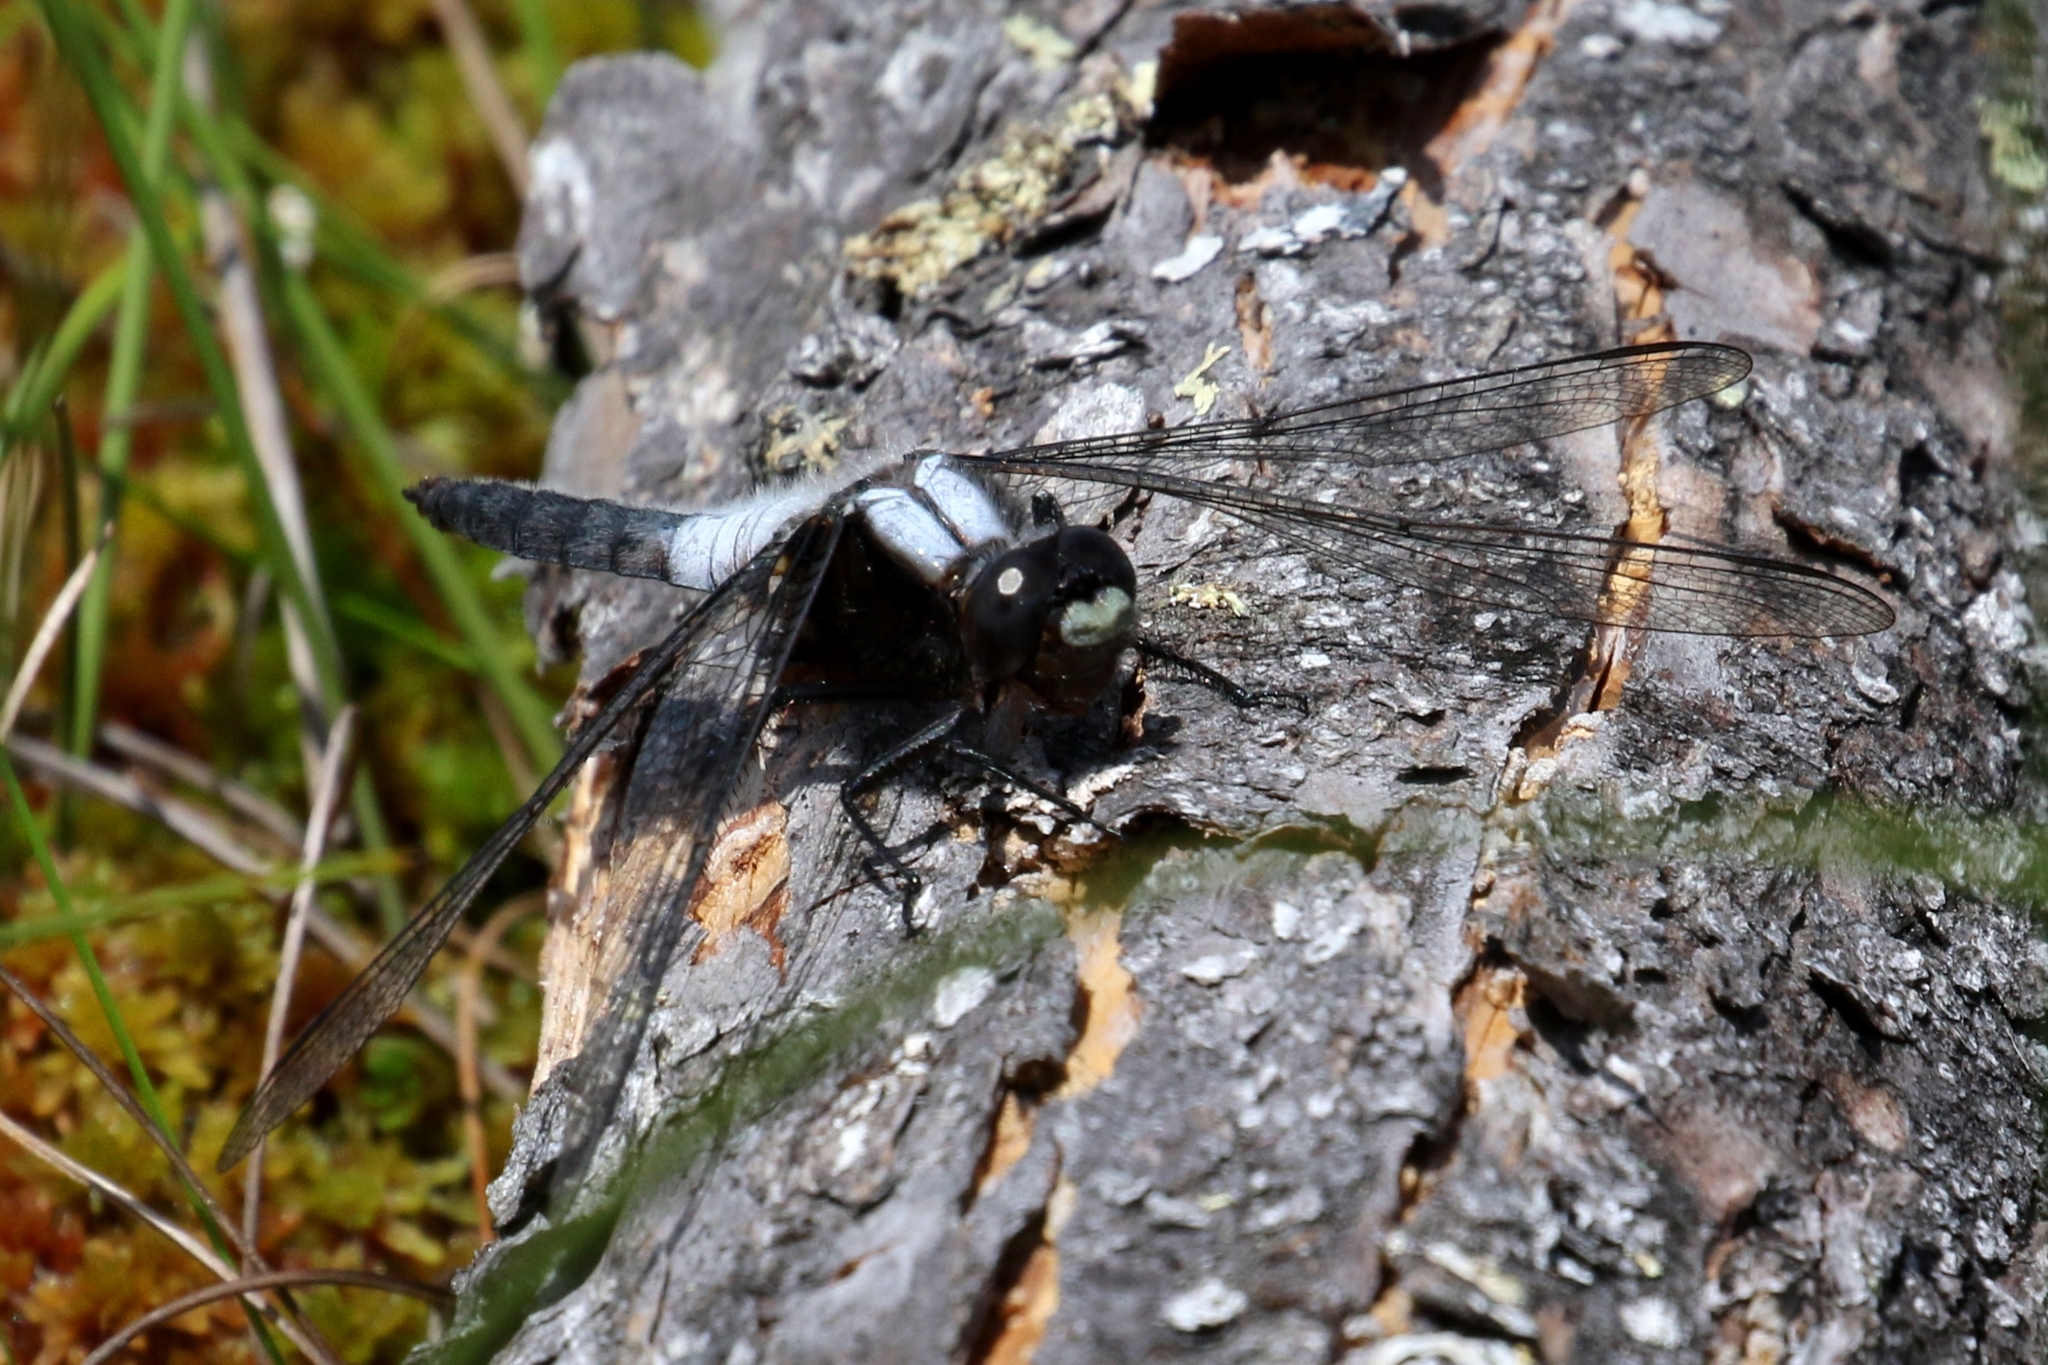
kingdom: Animalia
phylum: Arthropoda
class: Insecta
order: Odonata
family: Libellulidae
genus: Ladona
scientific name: Ladona julia
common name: Chalk-fronted corporal
